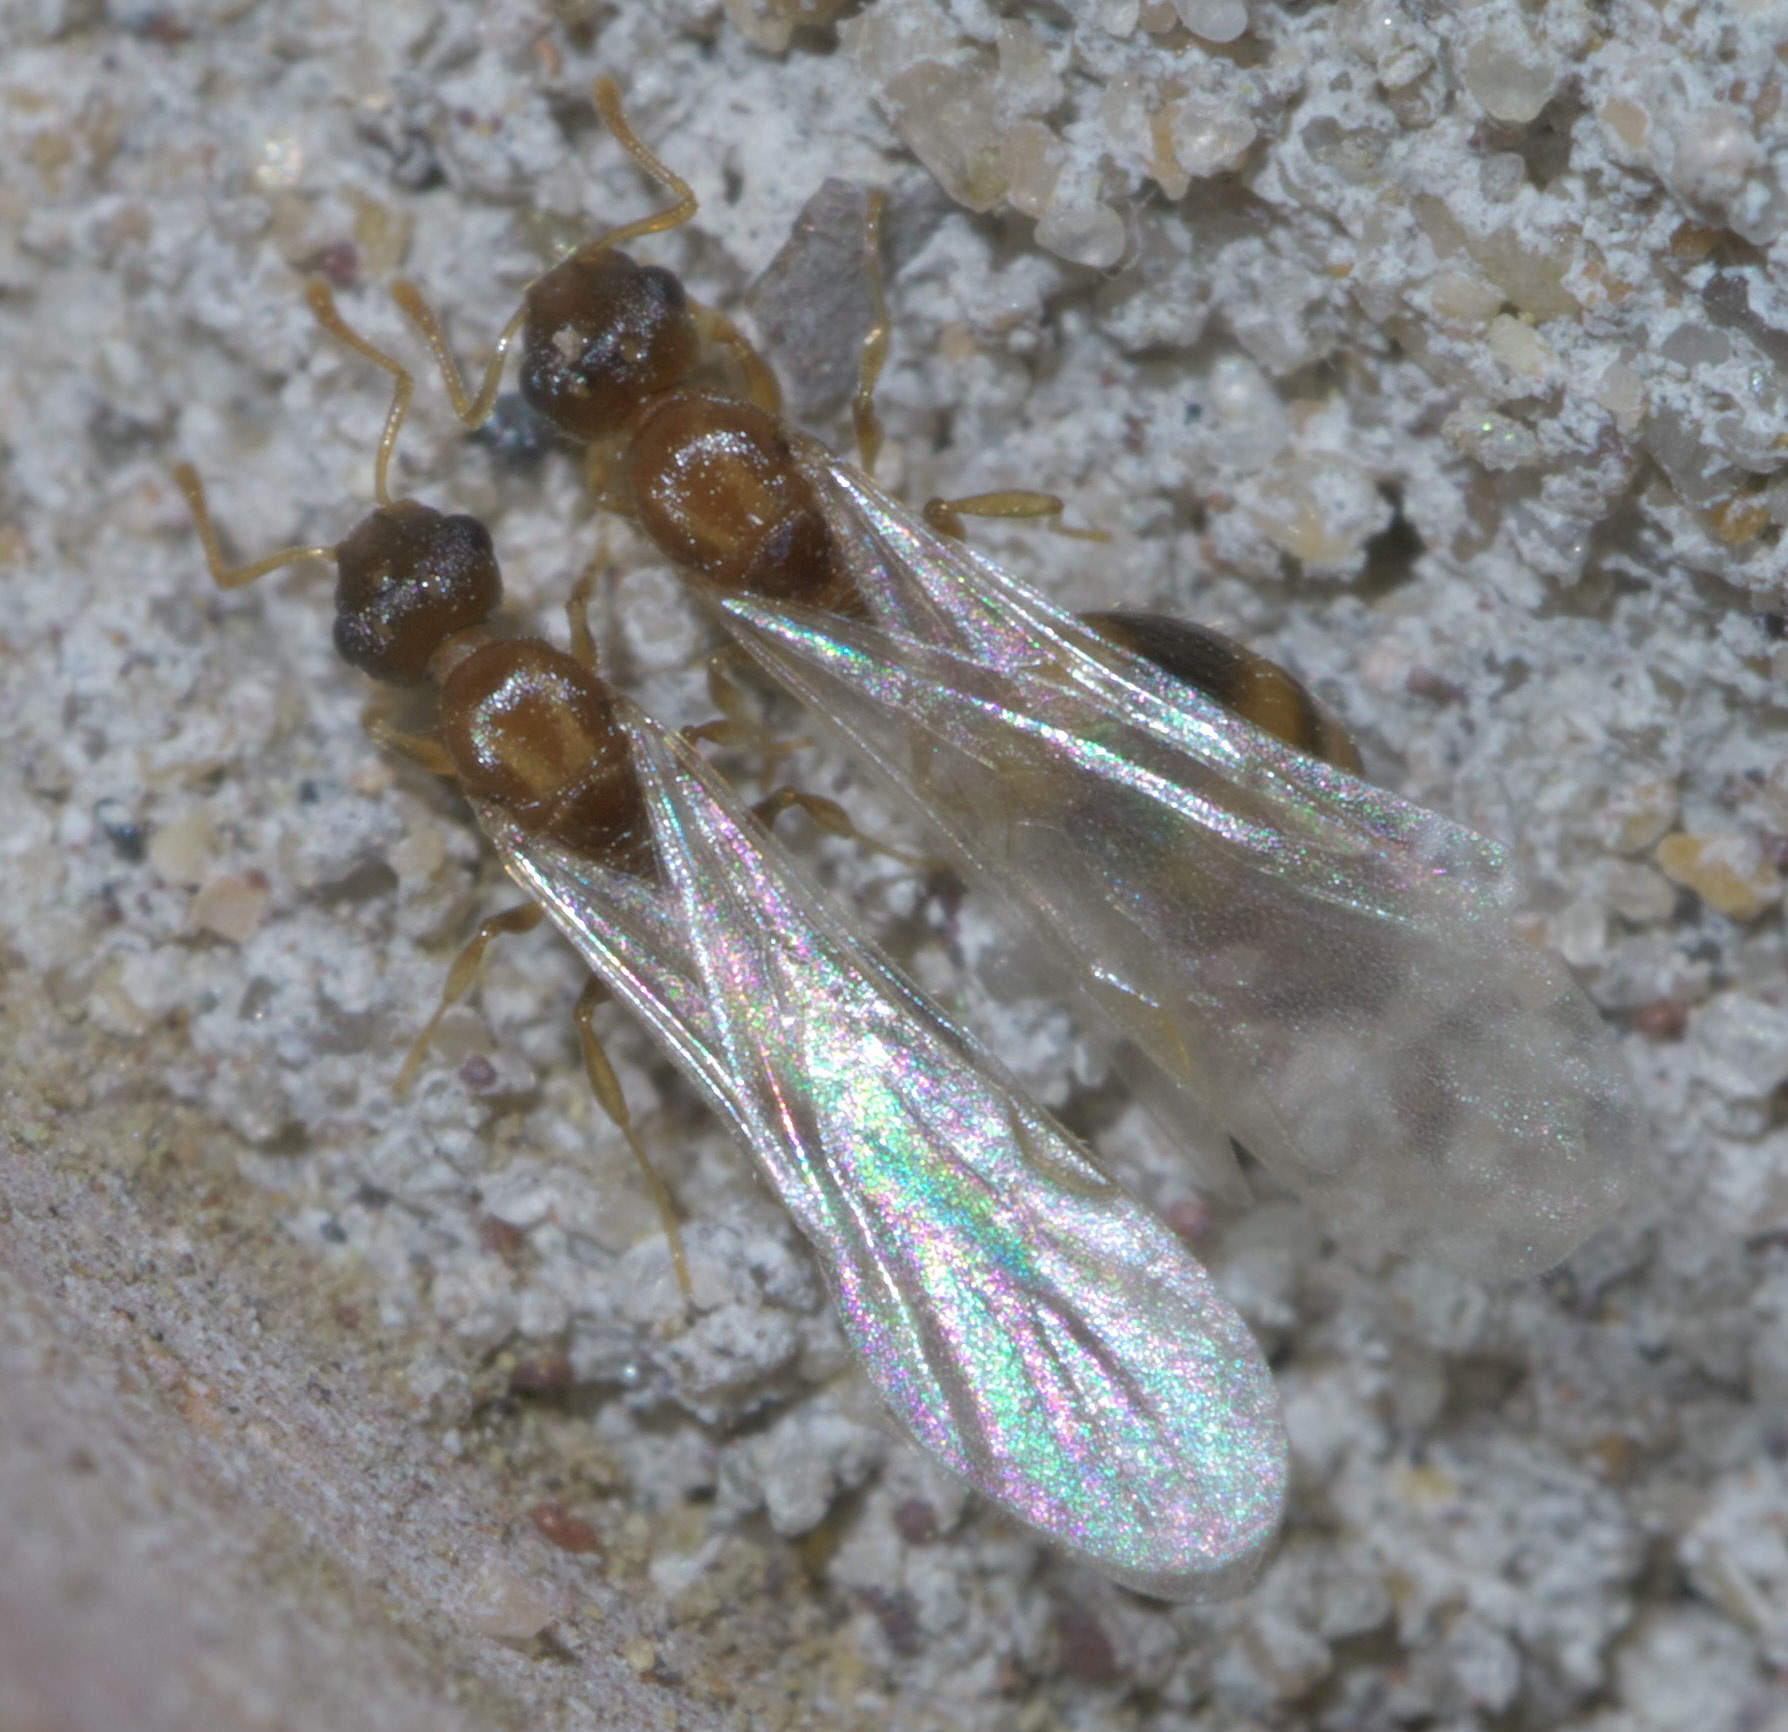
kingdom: Animalia
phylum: Arthropoda
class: Insecta
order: Hymenoptera
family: Formicidae
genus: Temnothorax
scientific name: Temnothorax curvispinosus
